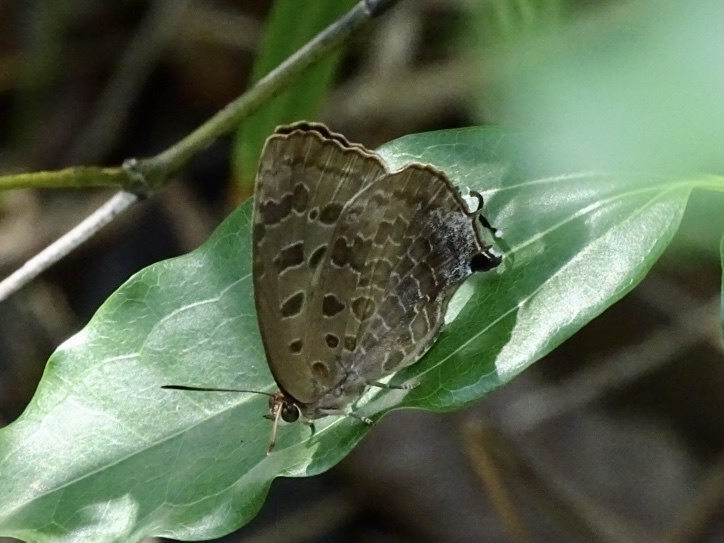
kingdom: Animalia
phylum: Arthropoda
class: Insecta
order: Lepidoptera
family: Lycaenidae
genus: Arhopala
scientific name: Arhopala bazalus
